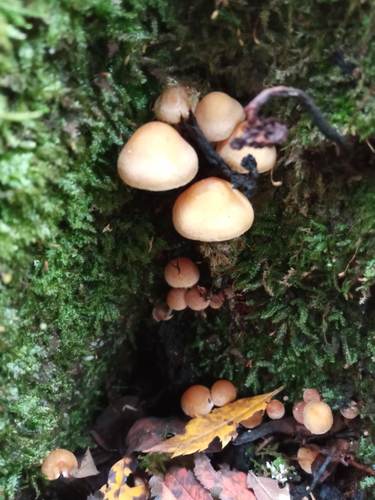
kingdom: Fungi
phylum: Basidiomycota
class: Agaricomycetes
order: Agaricales
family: Strophariaceae
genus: Hypholoma
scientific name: Hypholoma fasciculare
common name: Sulphur tuft
